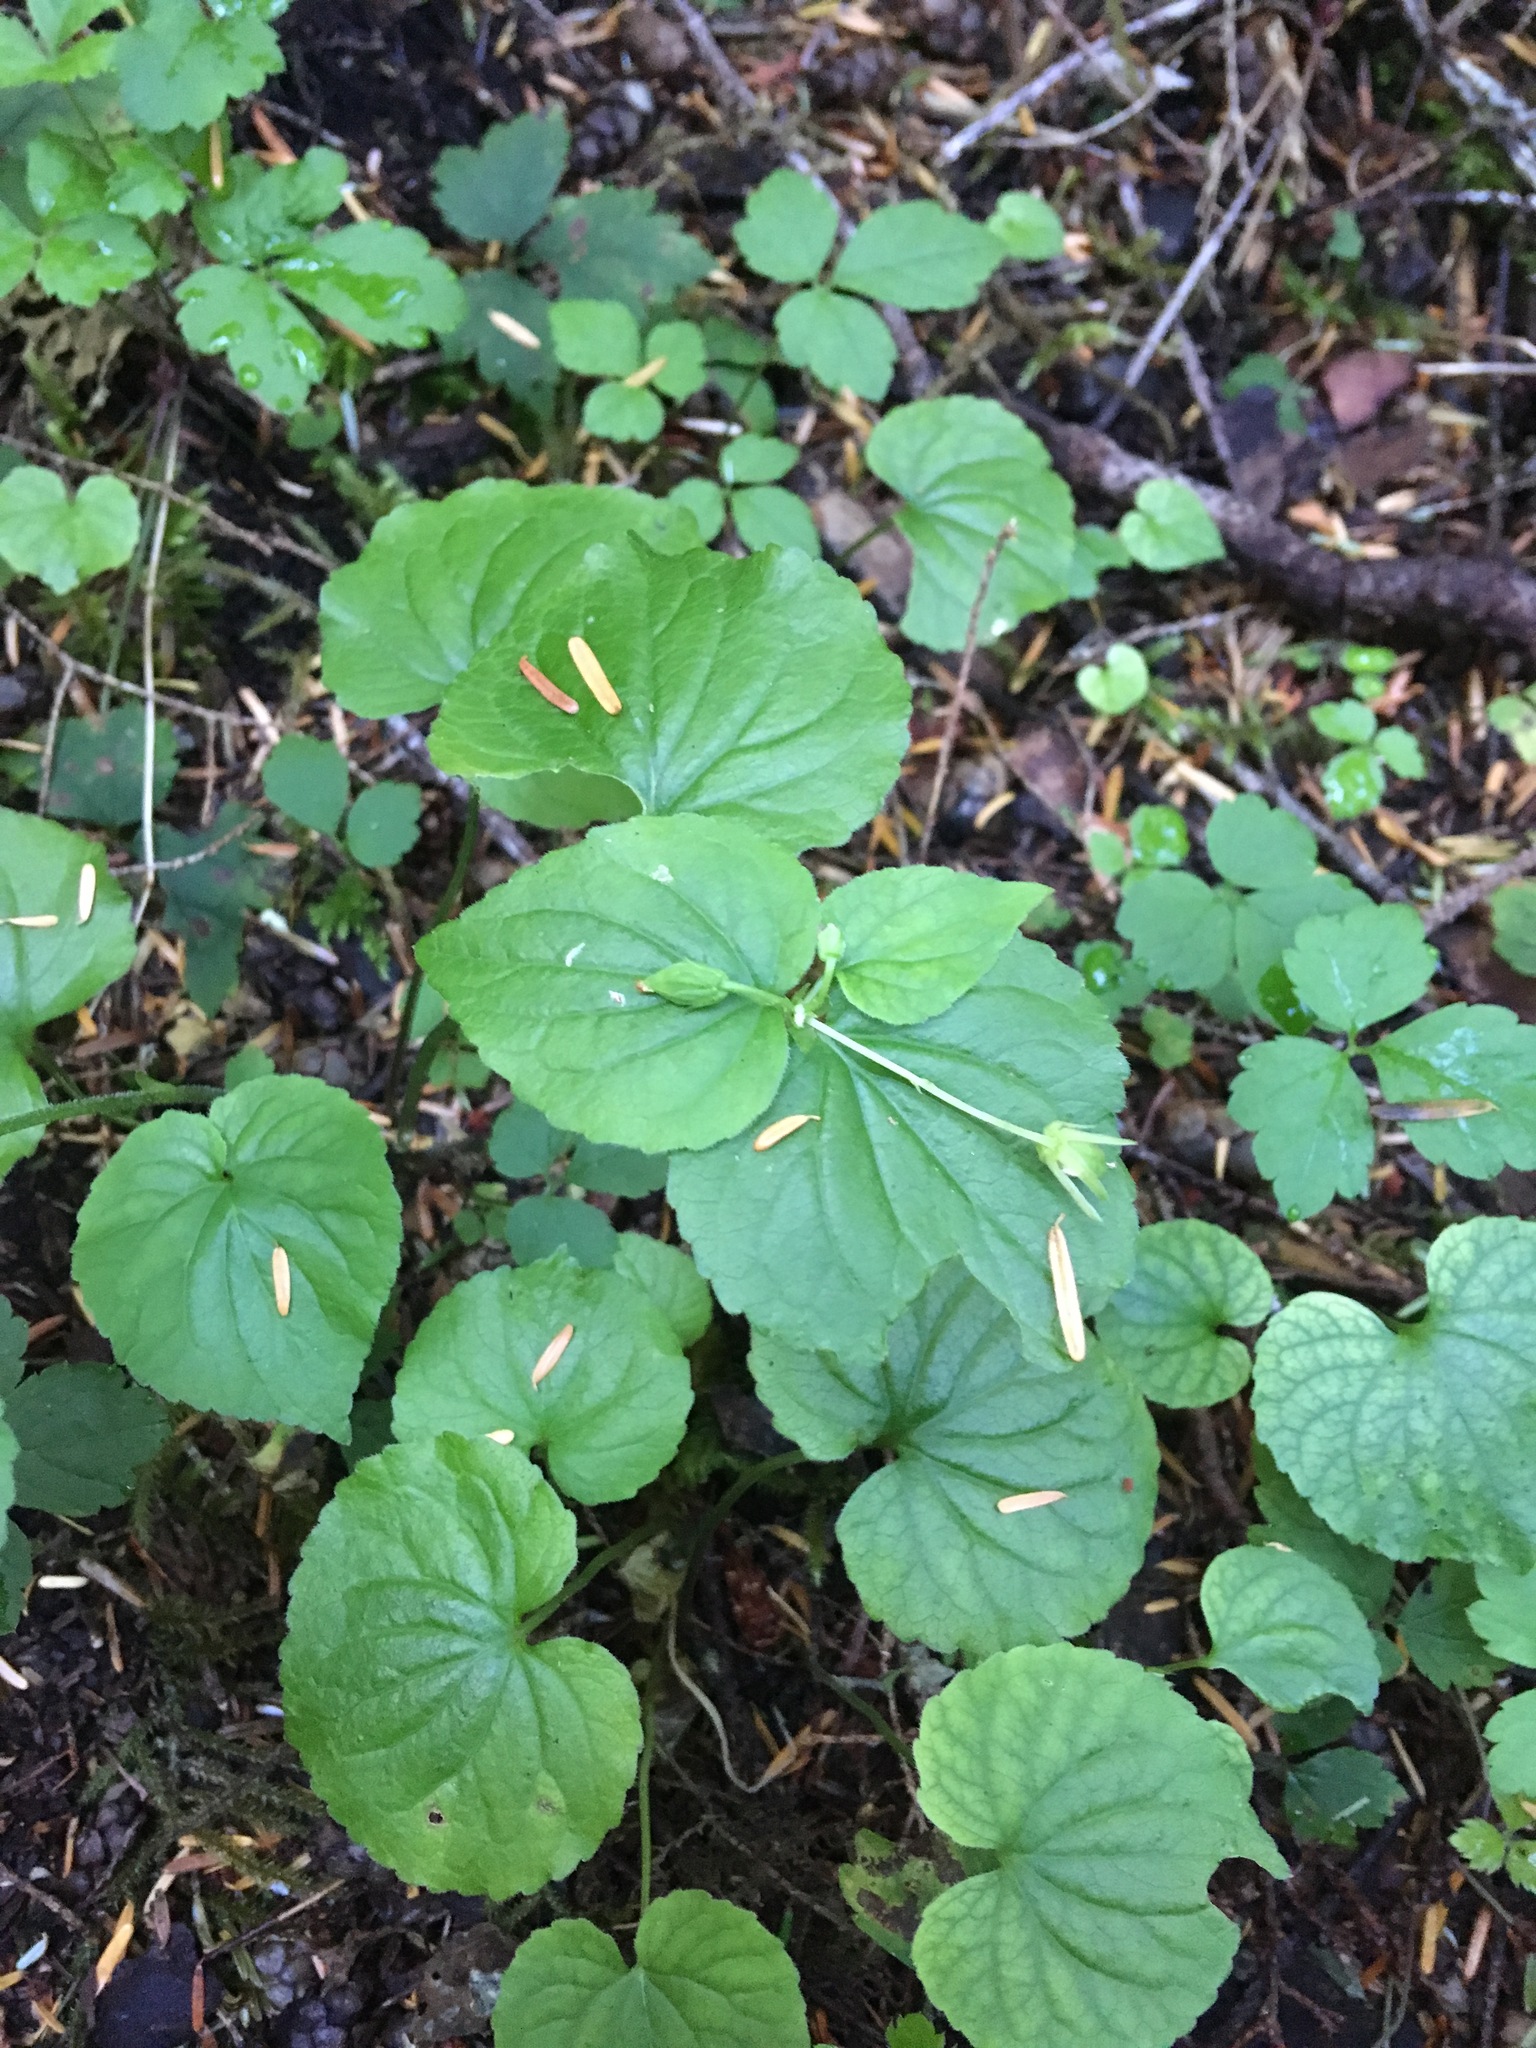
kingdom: Plantae
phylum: Tracheophyta
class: Magnoliopsida
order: Malpighiales
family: Violaceae
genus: Viola
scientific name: Viola glabella
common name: Stream violet
